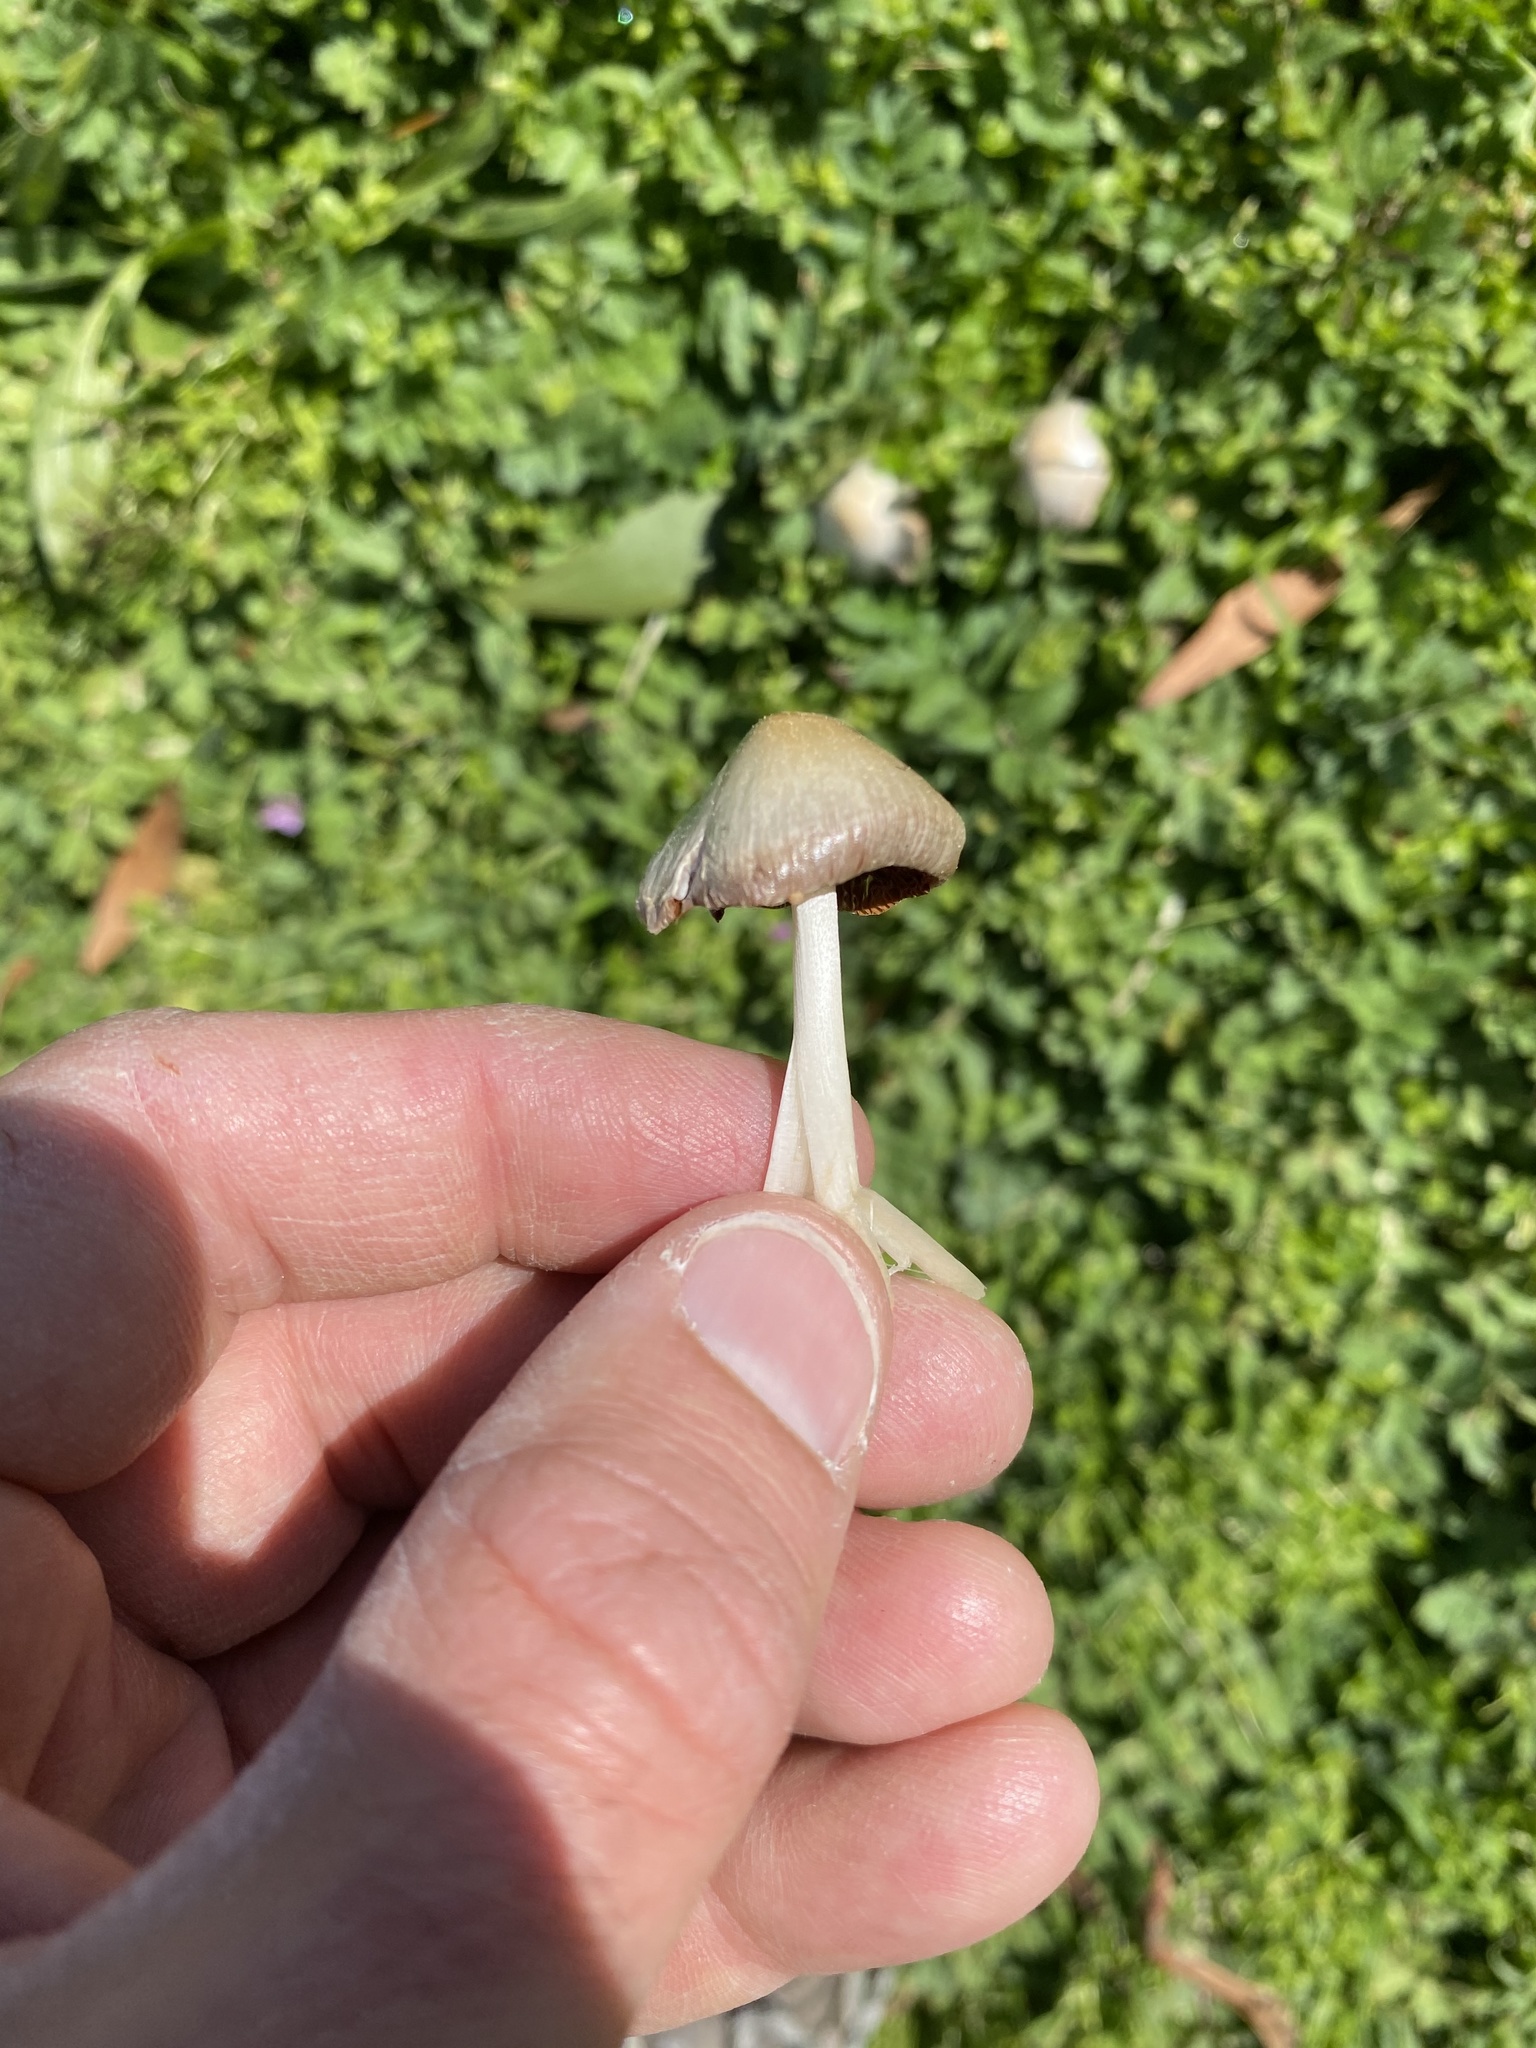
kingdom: Fungi
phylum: Basidiomycota
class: Agaricomycetes
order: Agaricales
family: Bolbitiaceae
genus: Bolbitius
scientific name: Bolbitius titubans
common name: Yellow fieldcap
